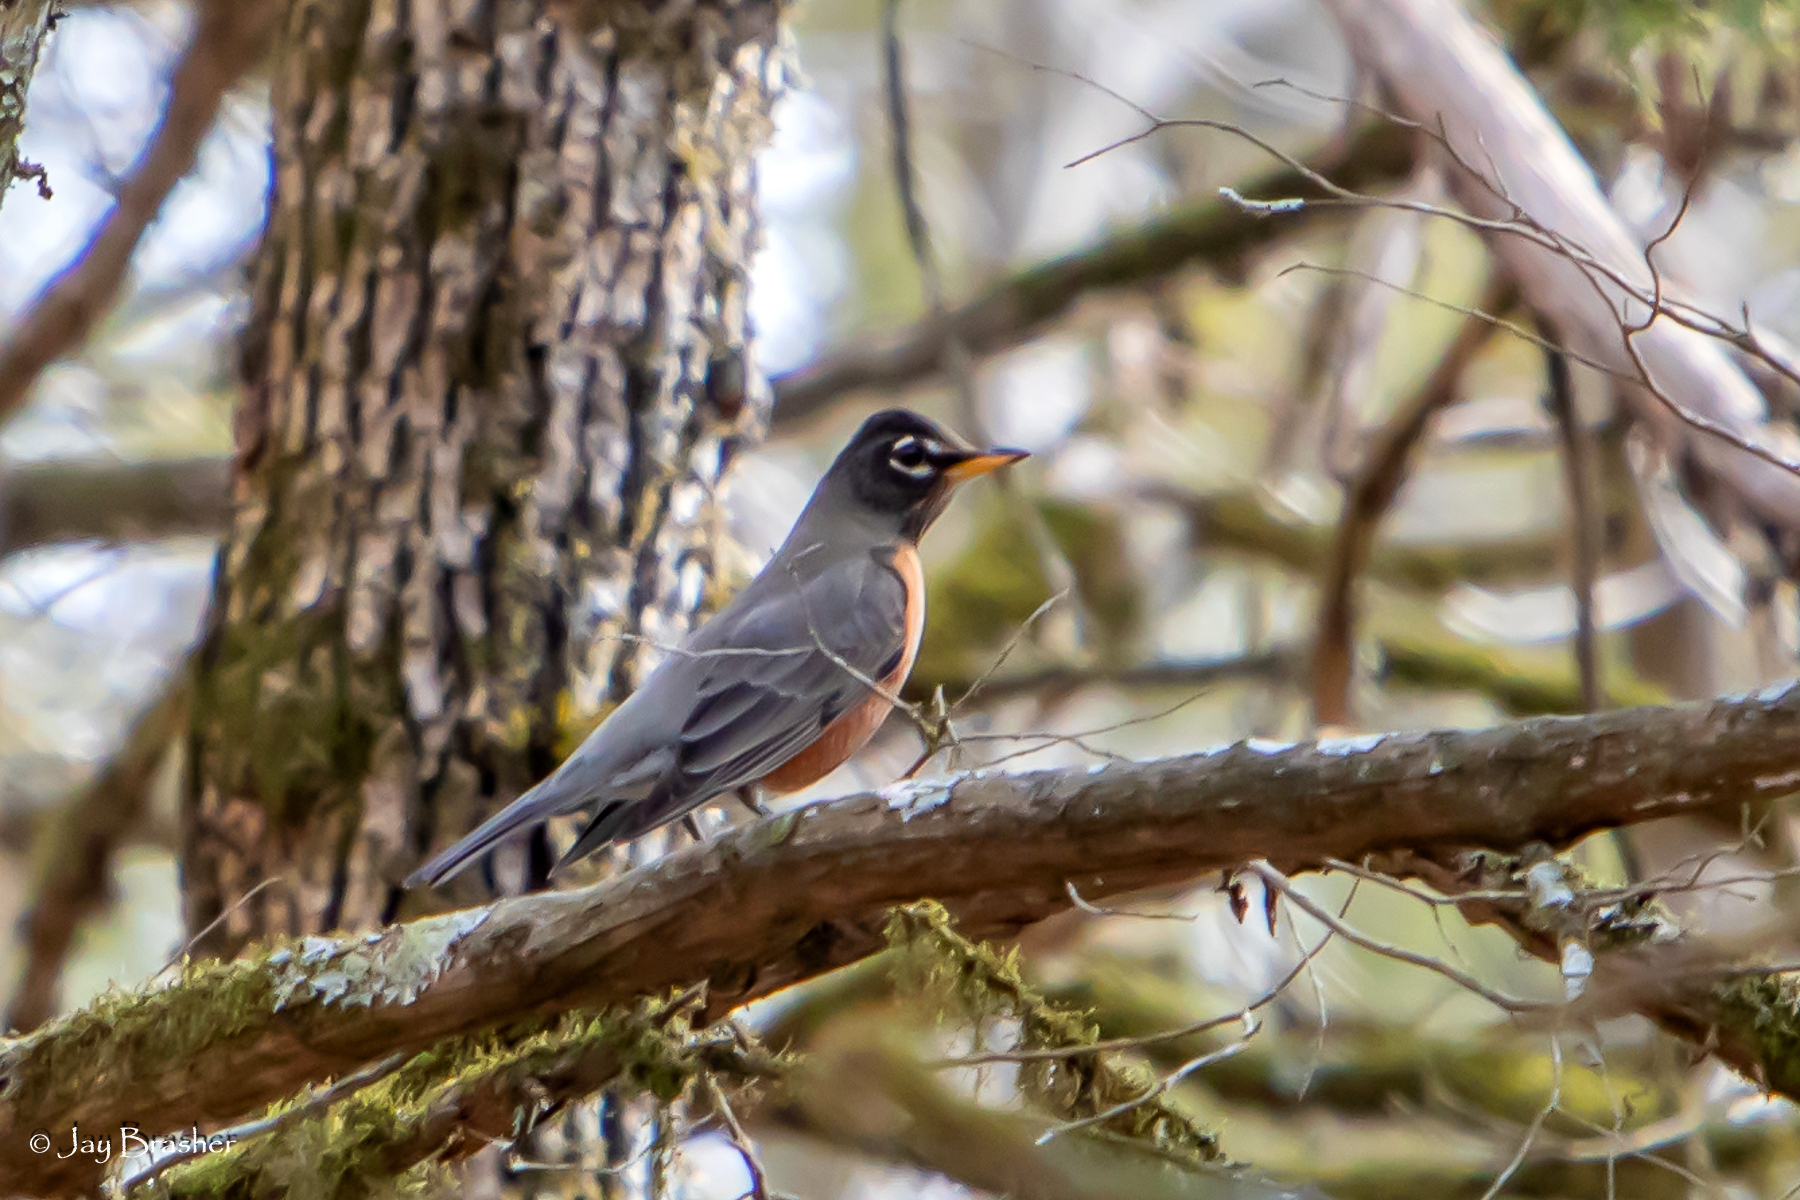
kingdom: Animalia
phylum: Chordata
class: Aves
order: Passeriformes
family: Turdidae
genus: Turdus
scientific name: Turdus migratorius
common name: American robin
